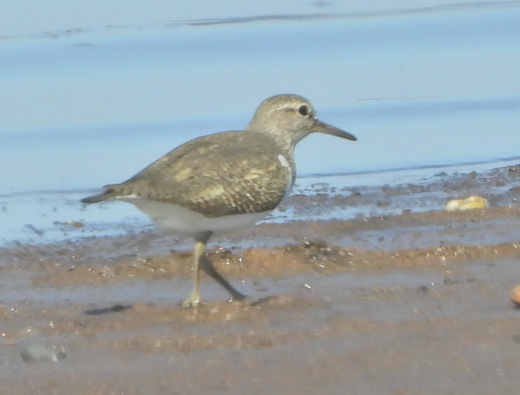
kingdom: Animalia
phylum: Chordata
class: Aves
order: Charadriiformes
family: Scolopacidae
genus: Actitis
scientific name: Actitis hypoleucos
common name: Common sandpiper
